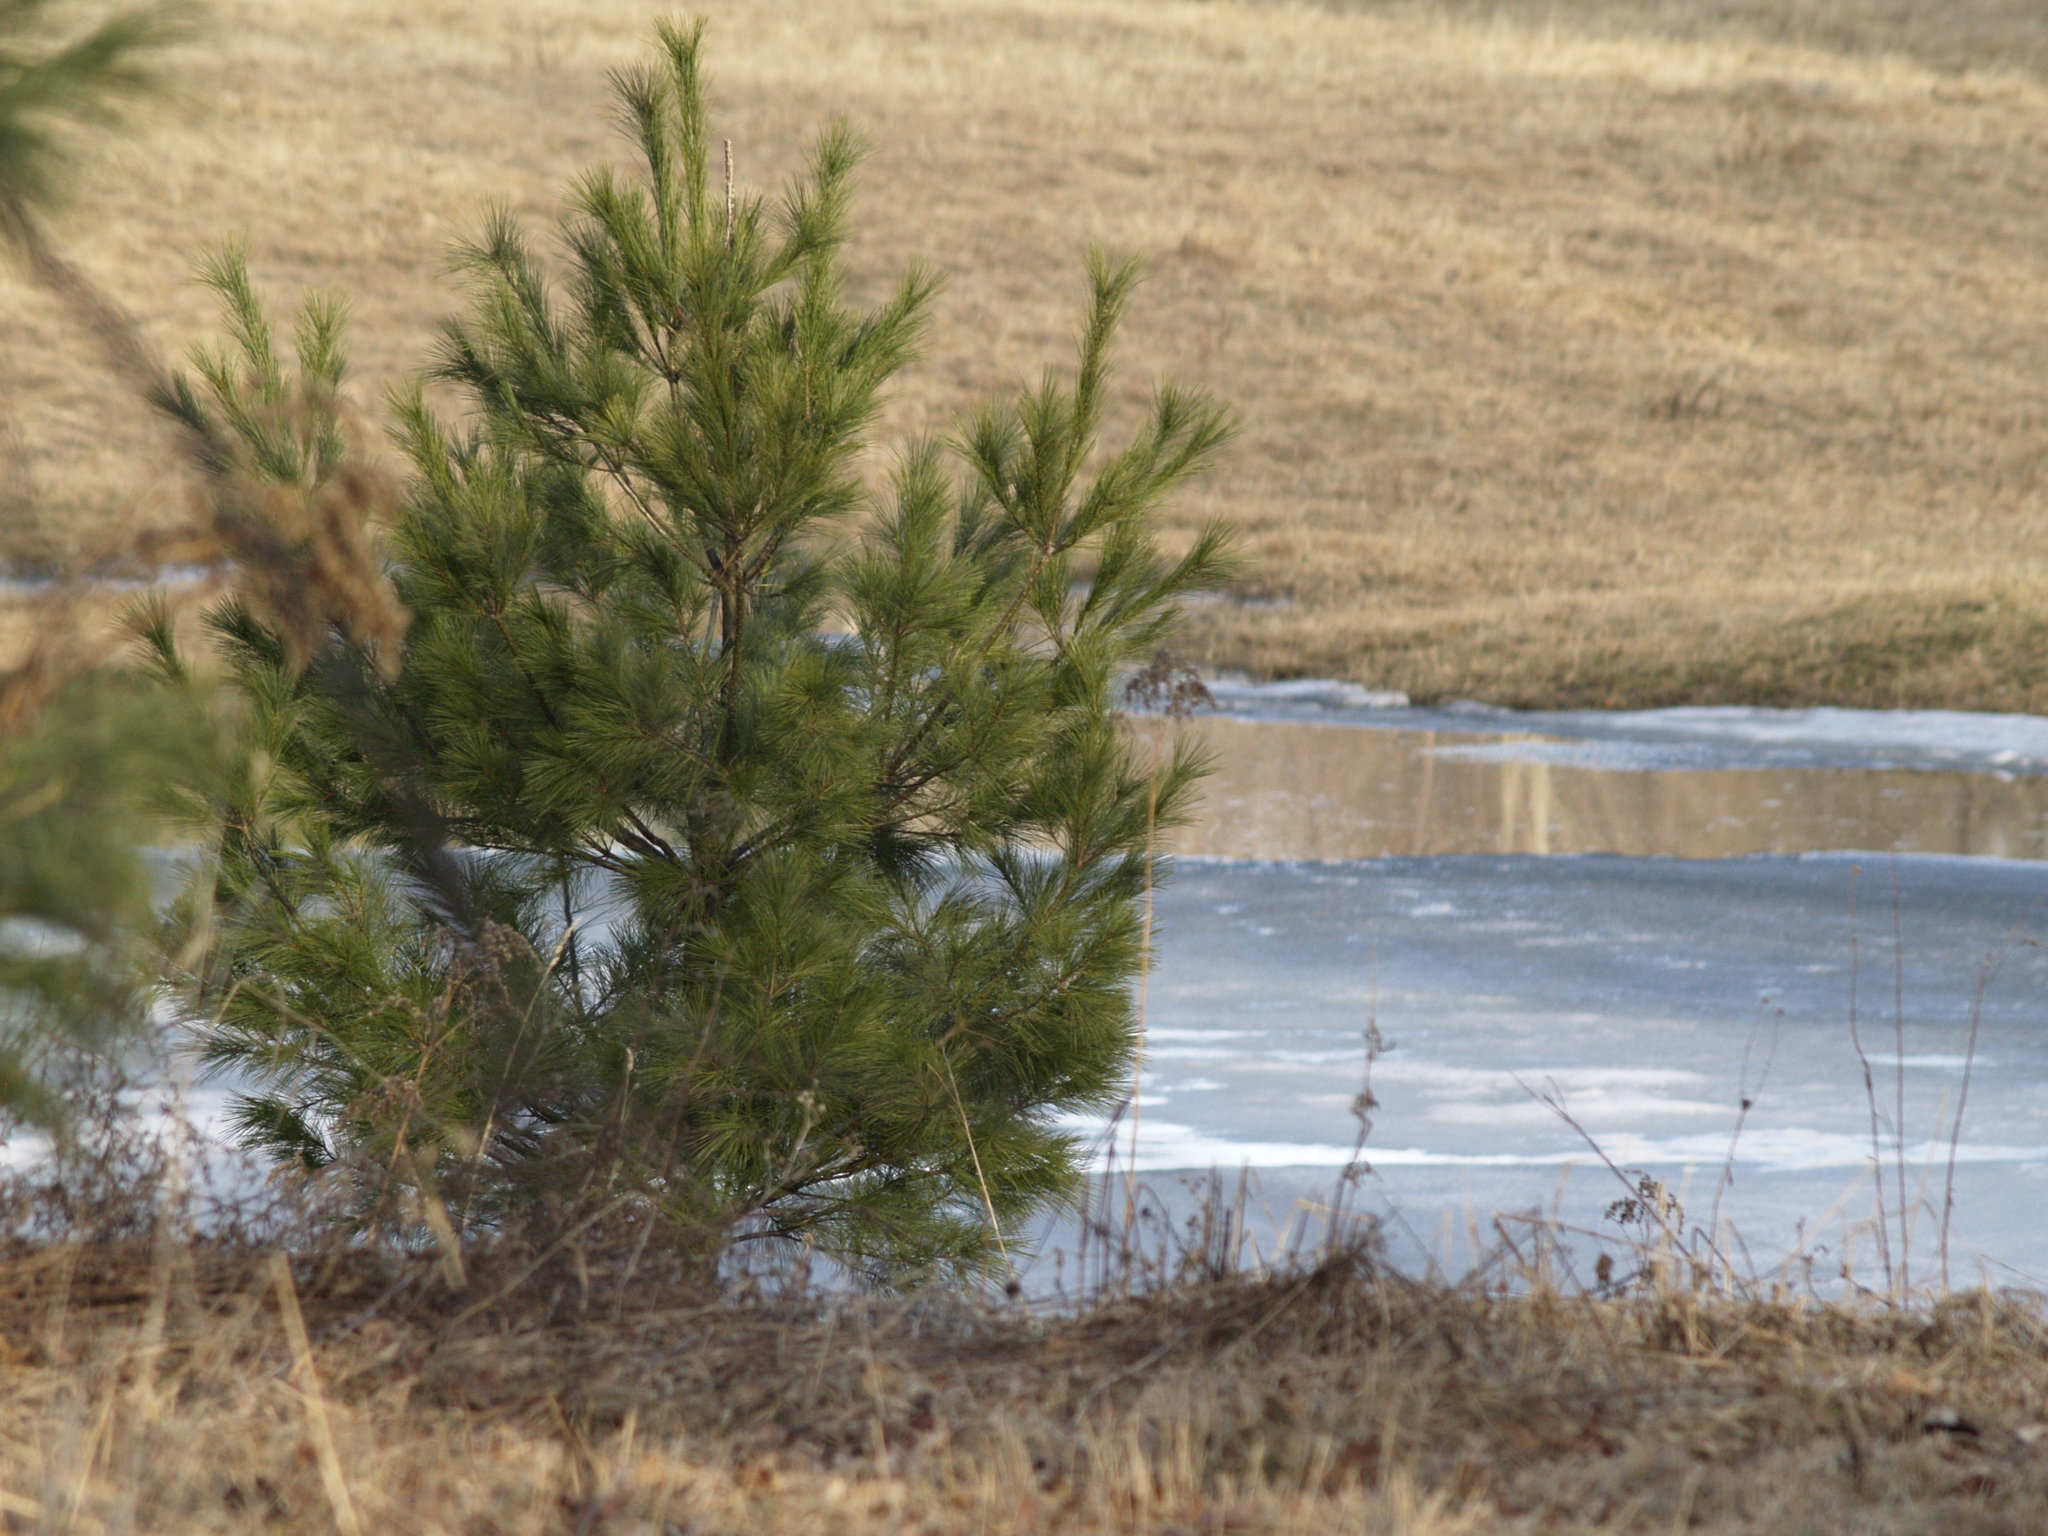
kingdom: Plantae
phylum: Tracheophyta
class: Pinopsida
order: Pinales
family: Pinaceae
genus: Pinus
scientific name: Pinus strobus
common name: Weymouth pine
